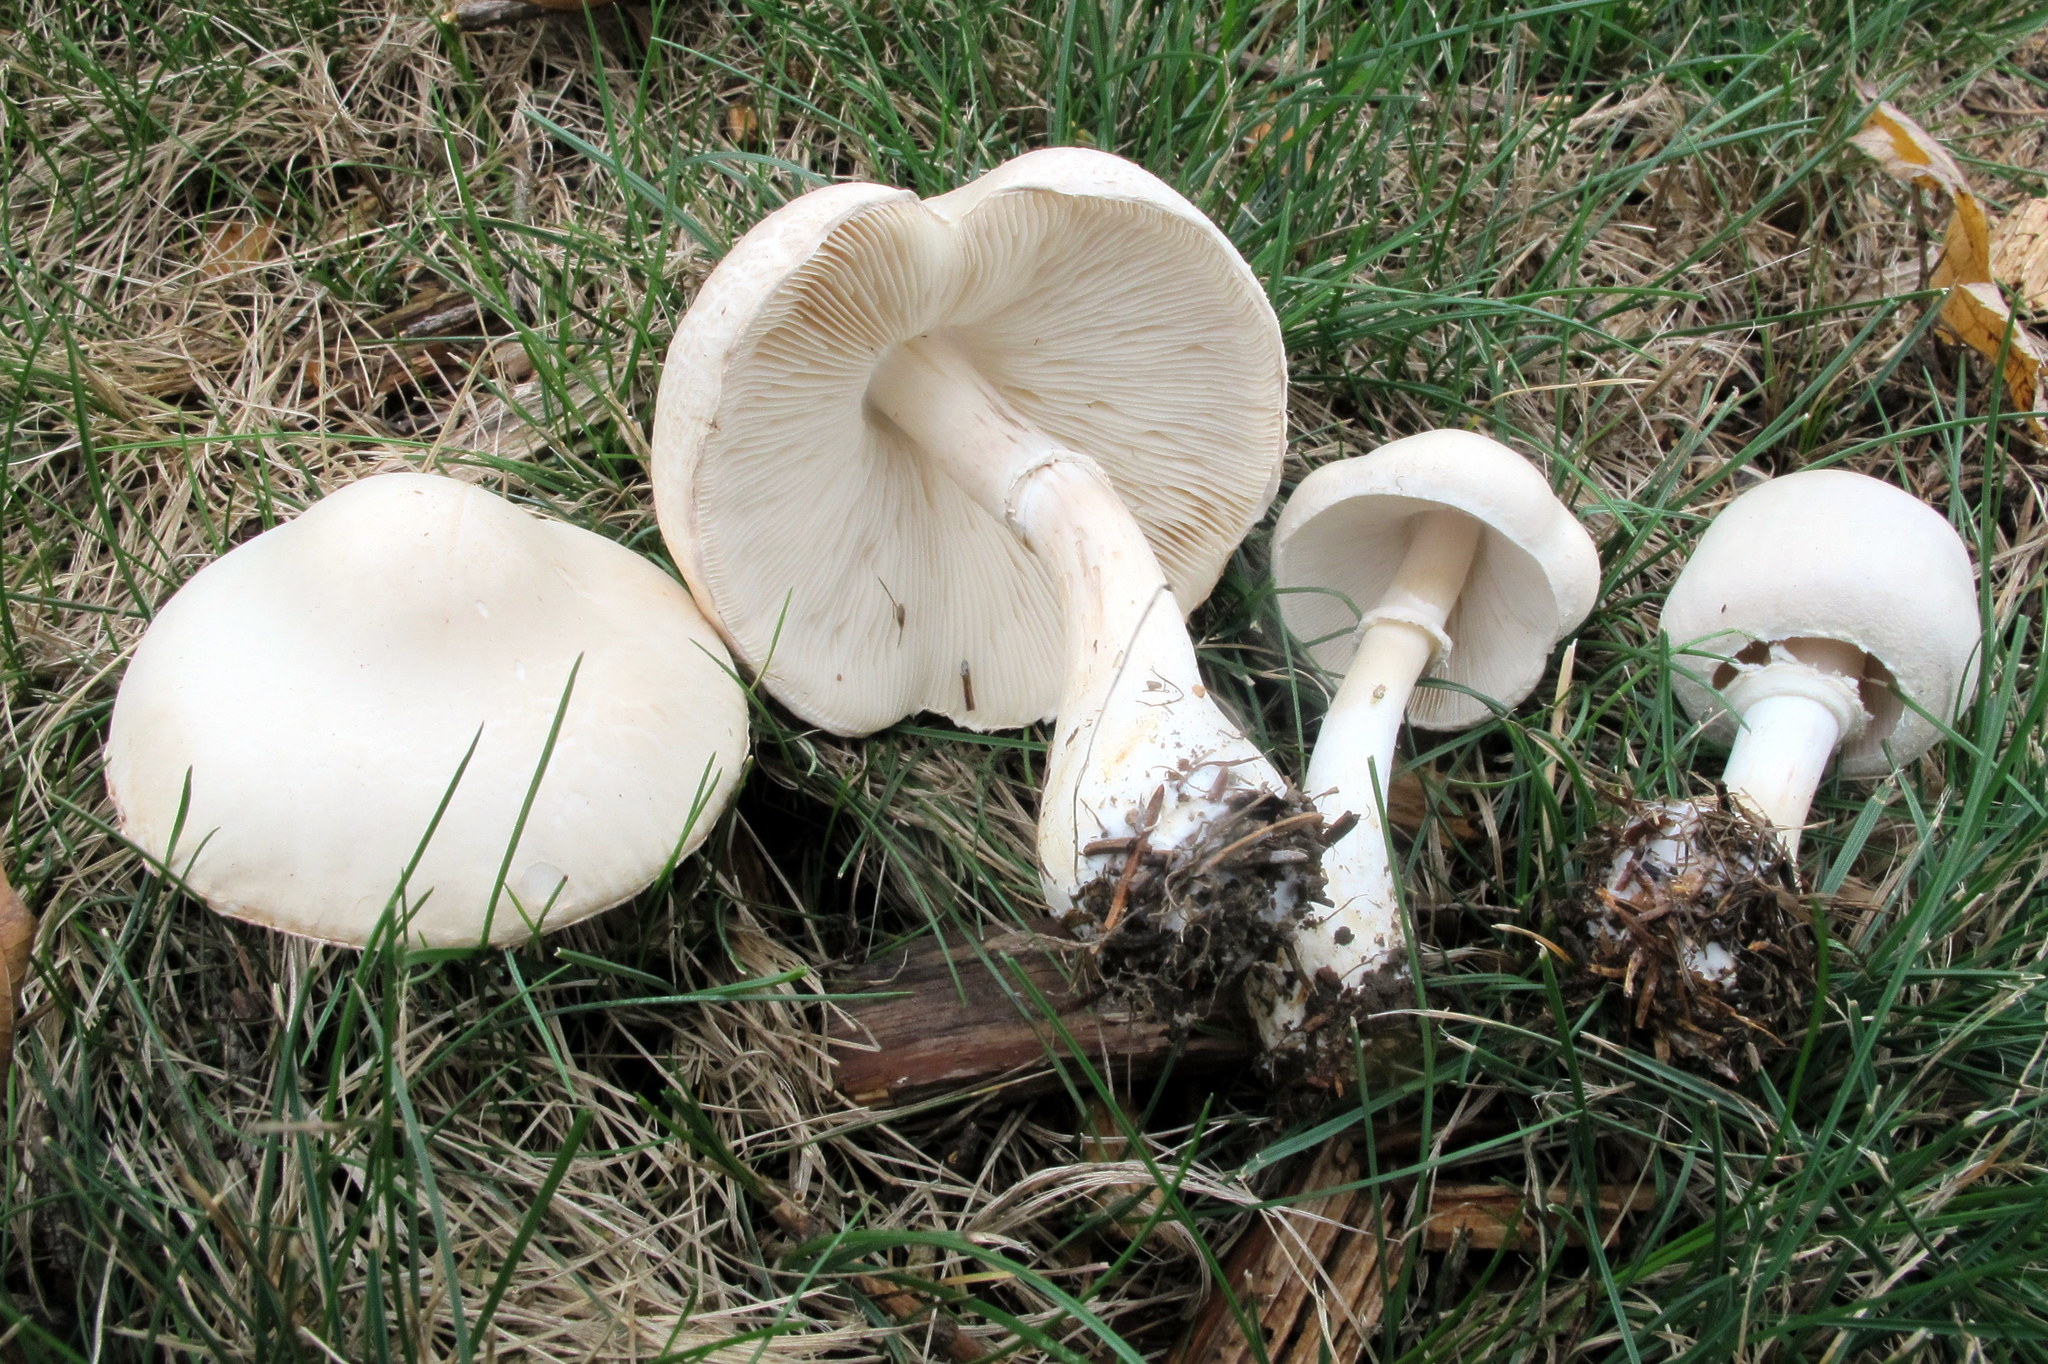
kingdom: Fungi
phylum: Basidiomycota
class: Agaricomycetes
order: Agaricales
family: Agaricaceae
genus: Leucoagaricus
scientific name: Leucoagaricus leucothites
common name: White dapperling
